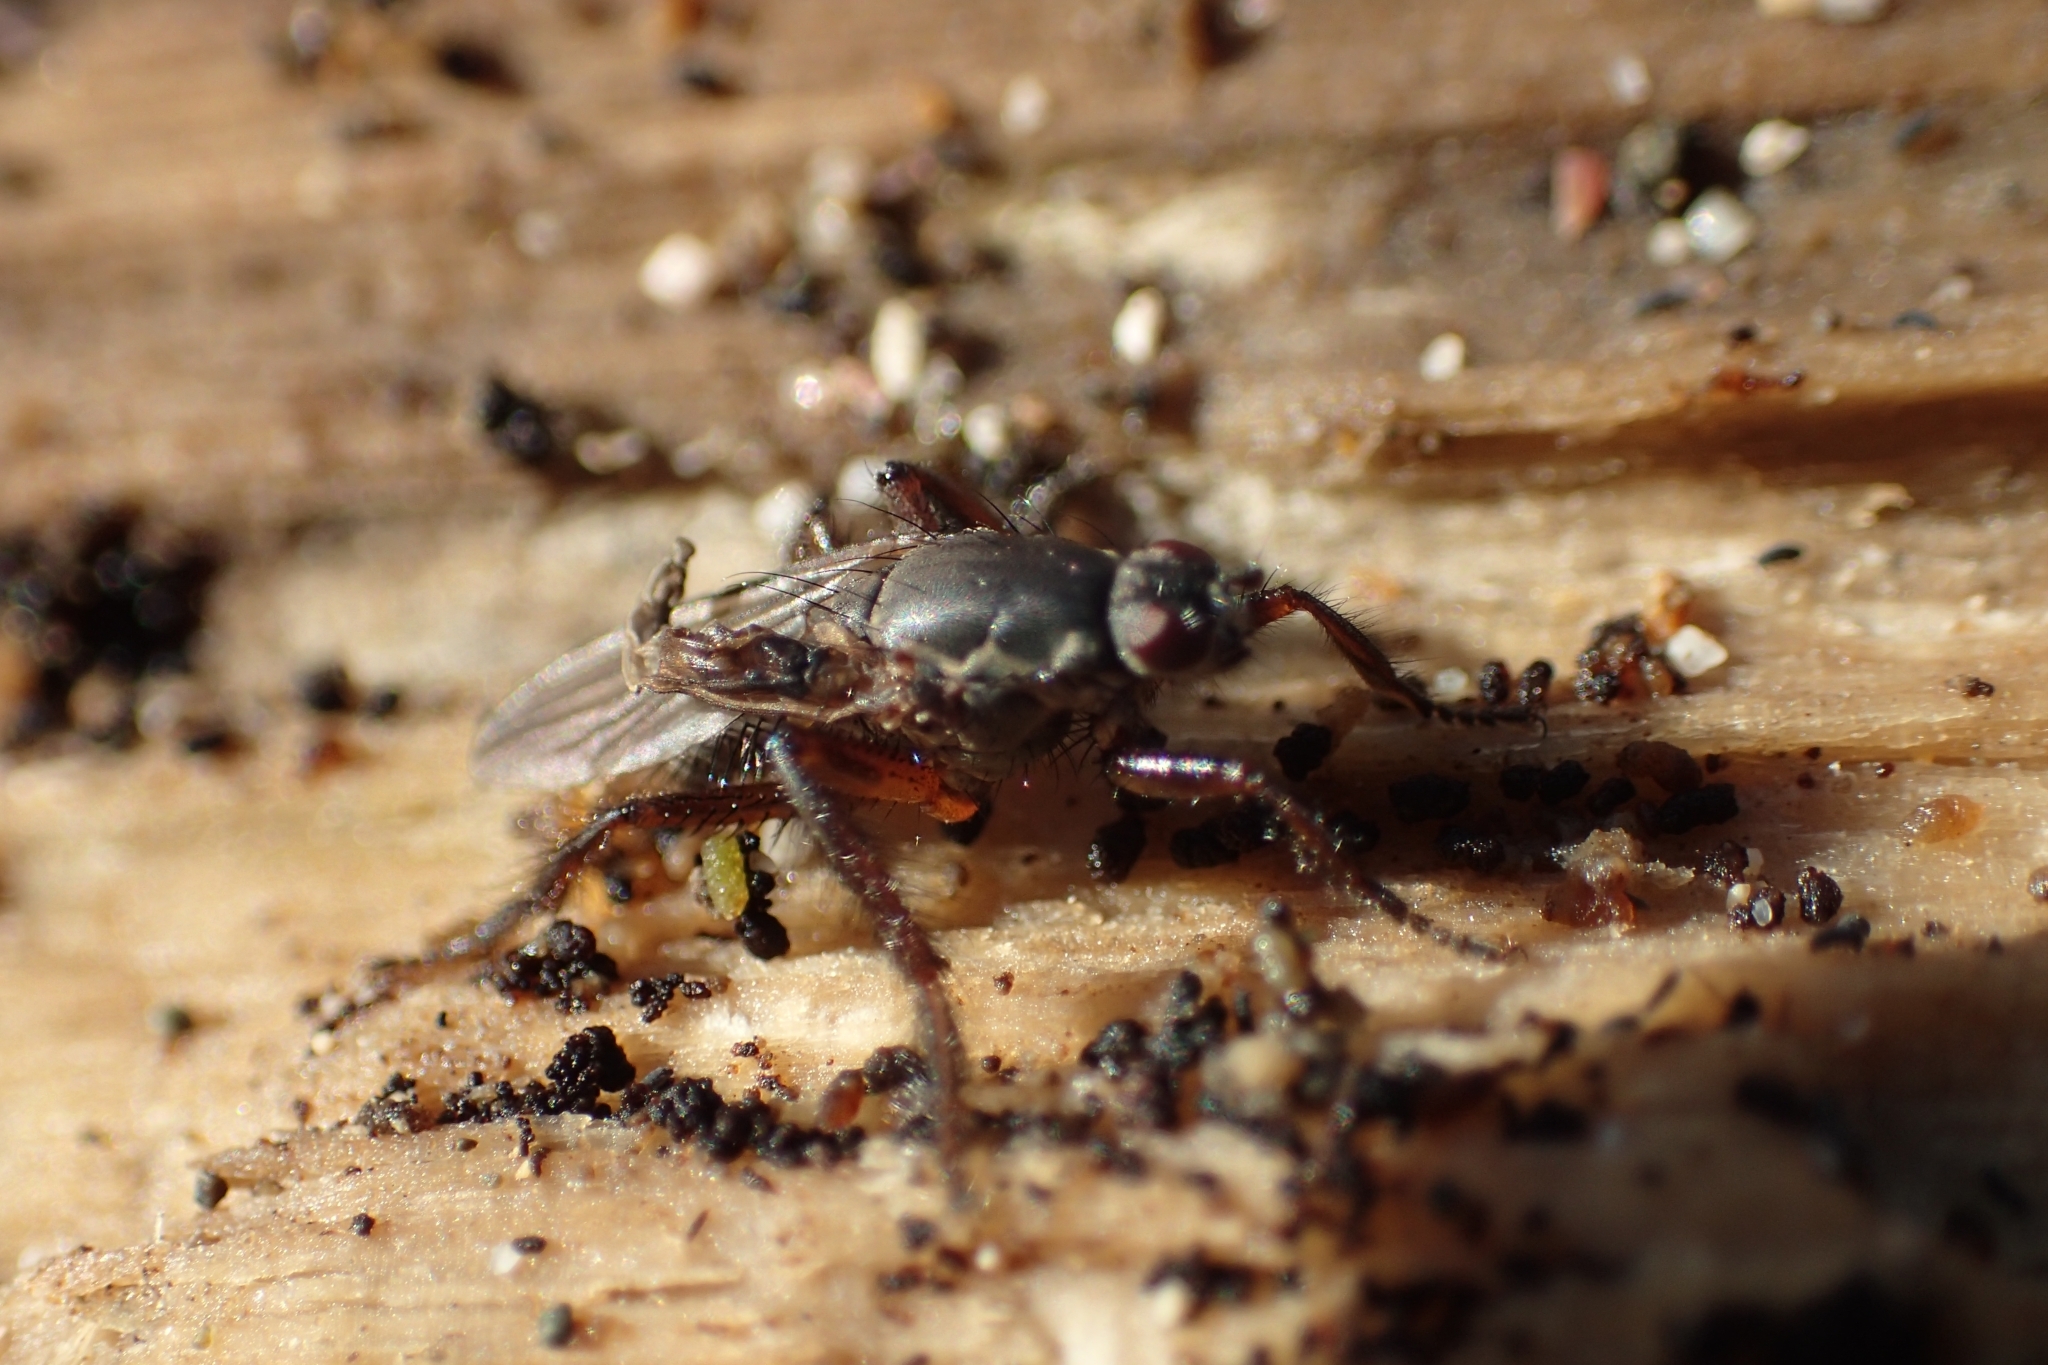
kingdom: Animalia
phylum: Arthropoda
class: Insecta
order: Diptera
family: Coelopidae
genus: Chaetocoelopa
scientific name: Chaetocoelopa littoralis
